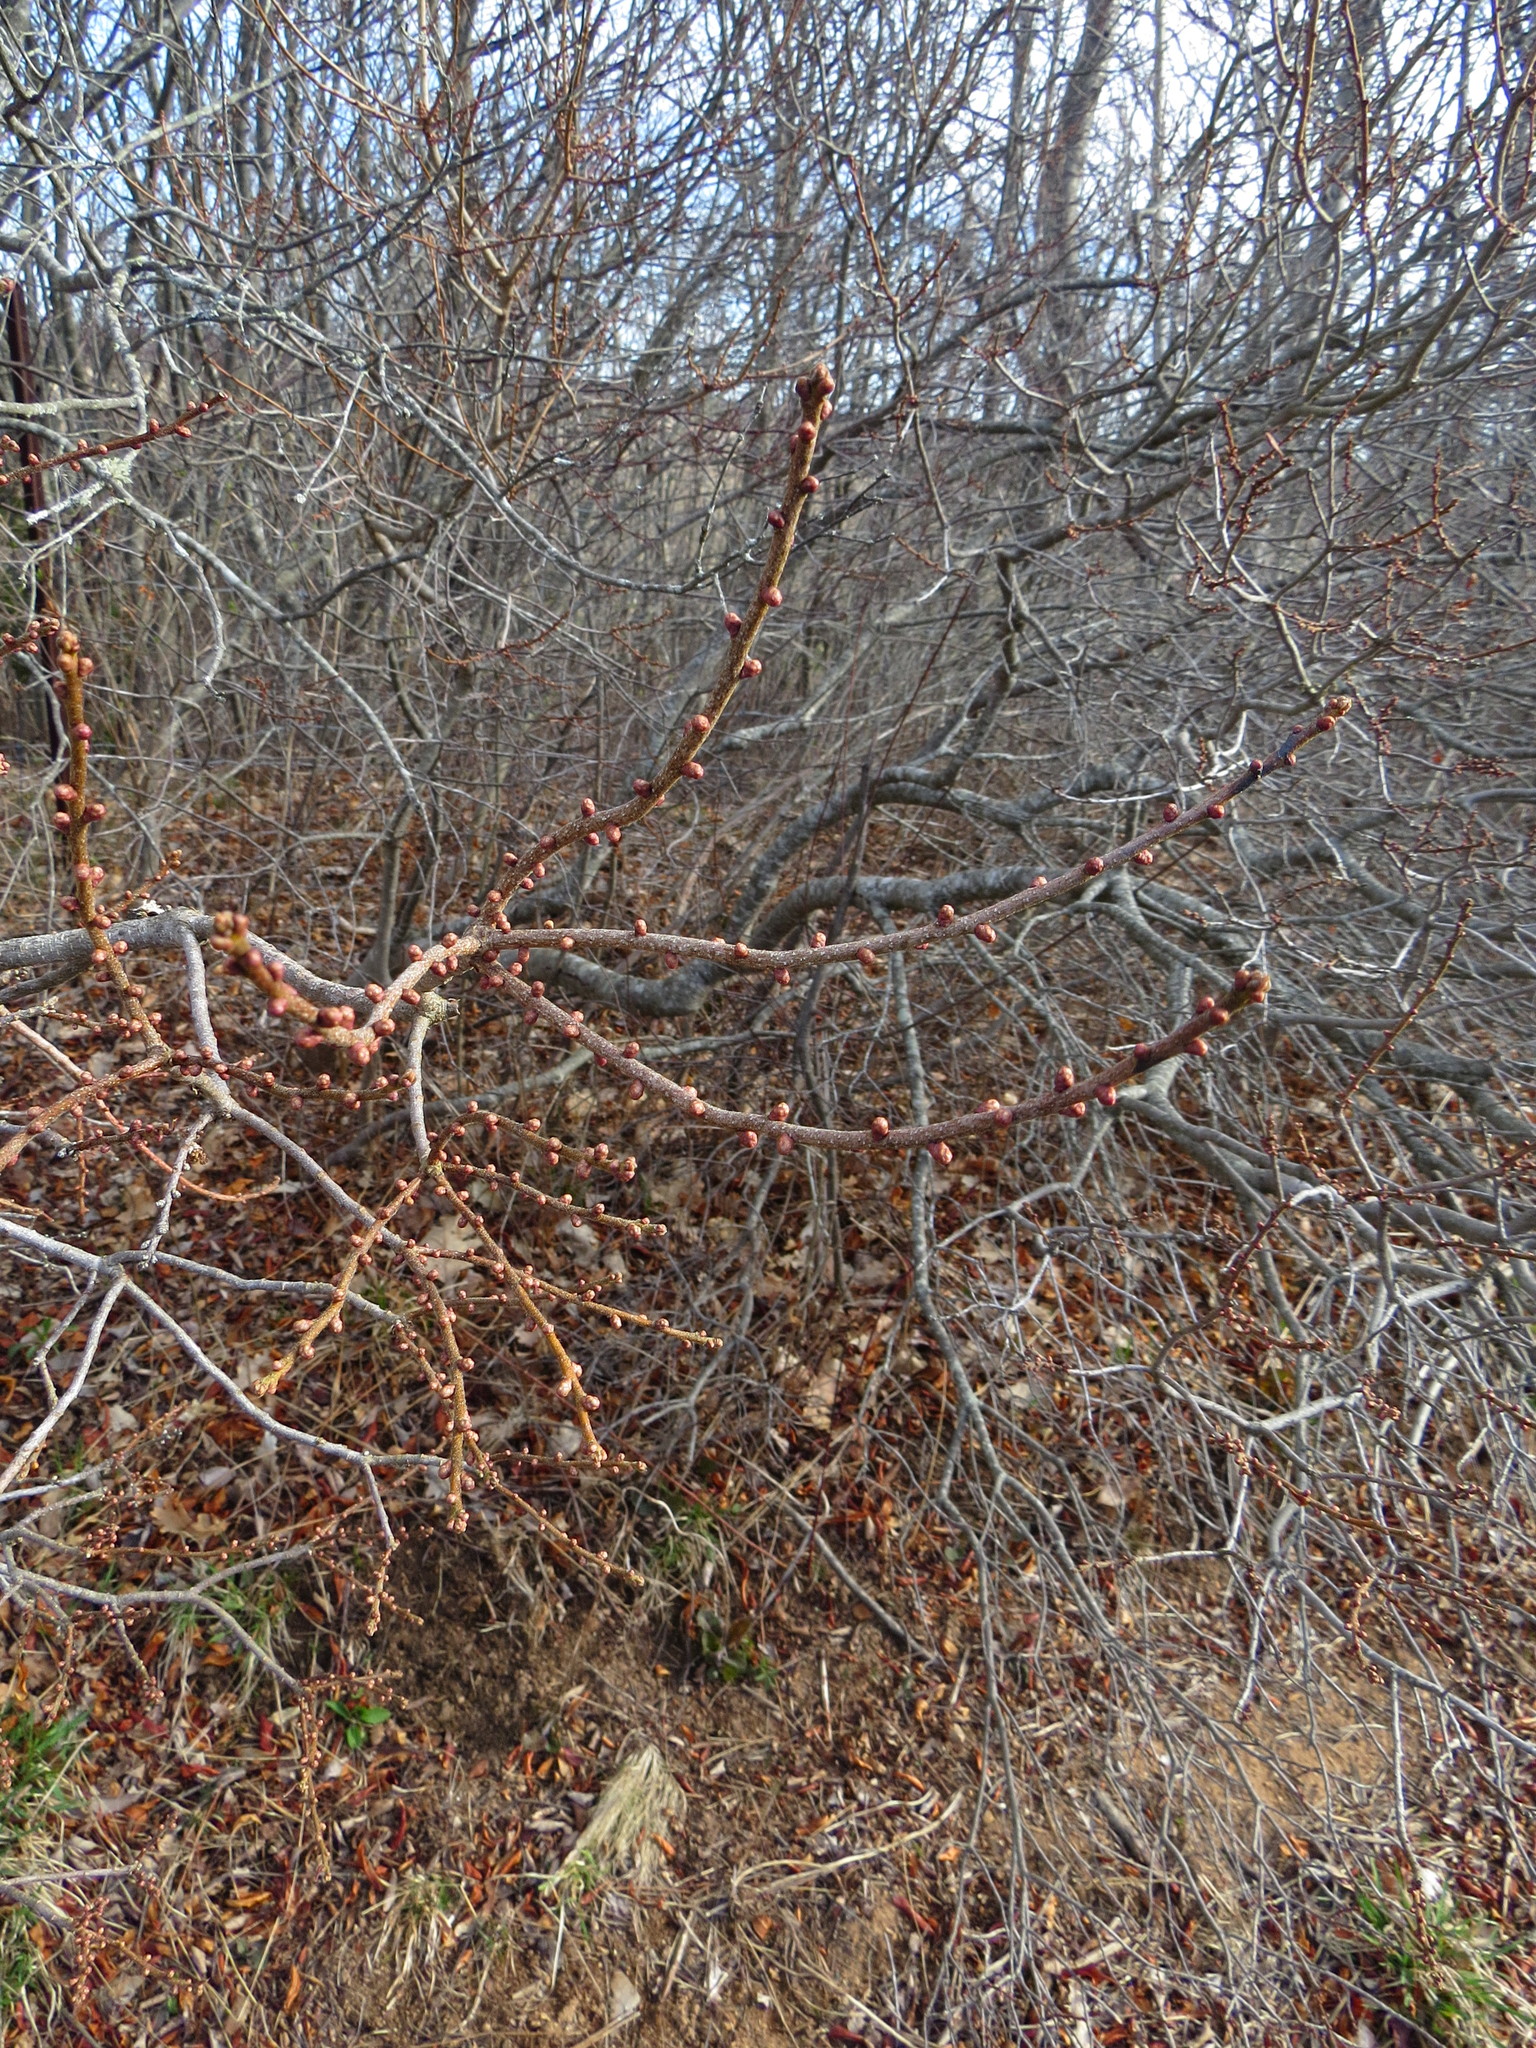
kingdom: Plantae
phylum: Tracheophyta
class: Magnoliopsida
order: Fagales
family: Myricaceae
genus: Morella
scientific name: Morella pensylvanica
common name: Northern bayberry
